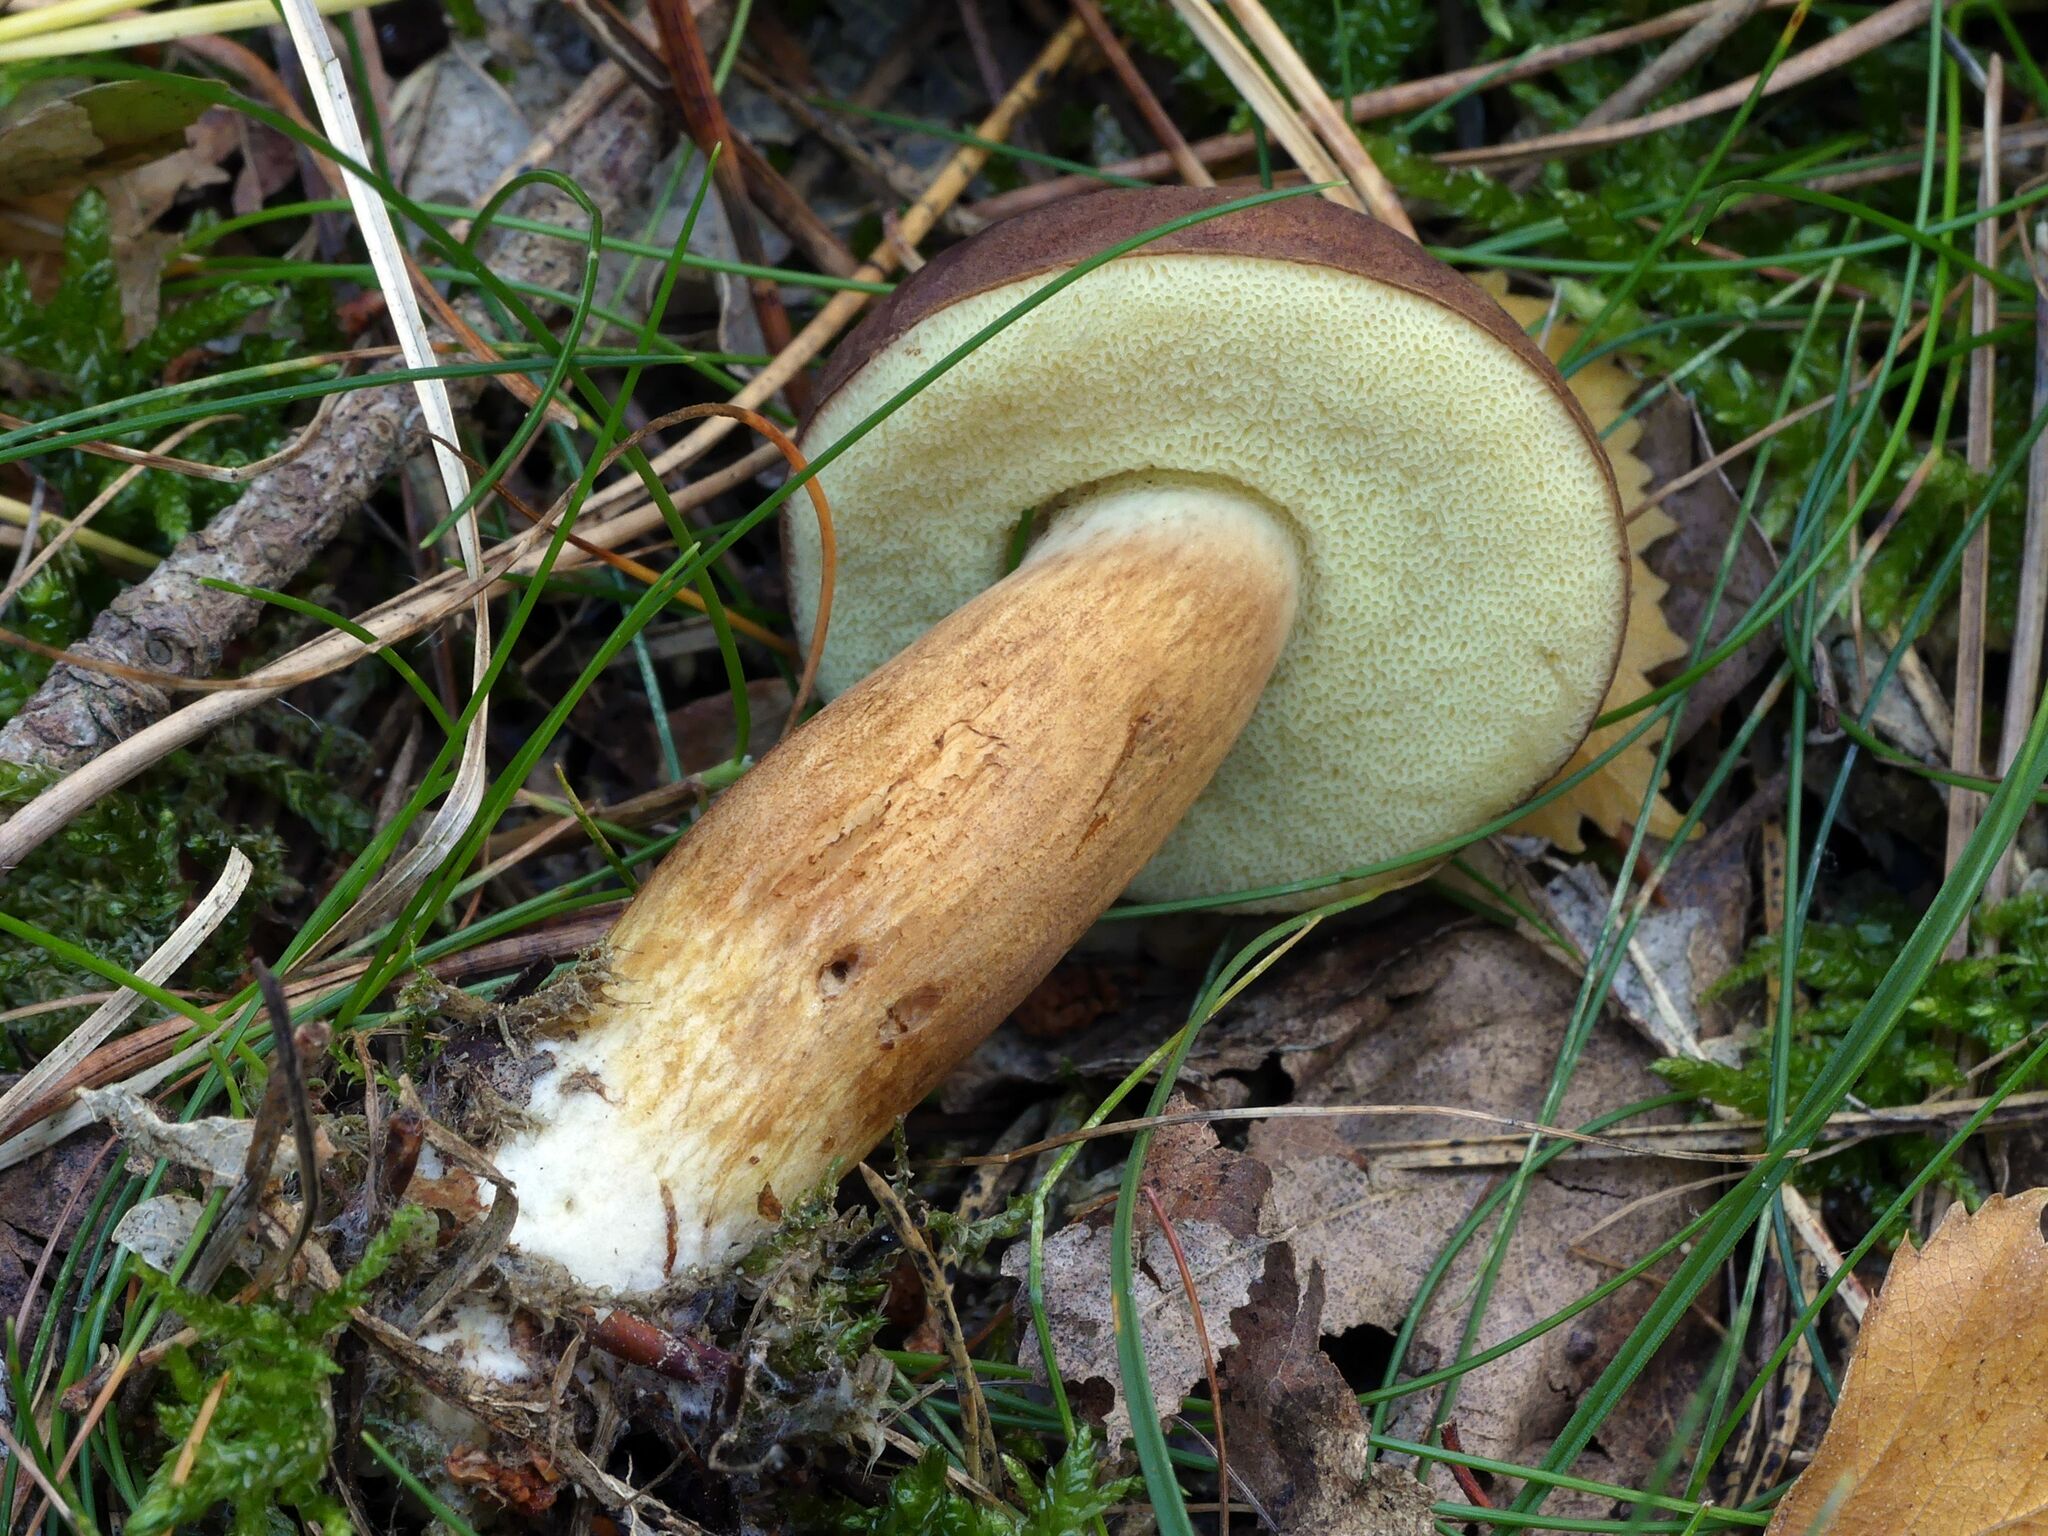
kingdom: Fungi
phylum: Basidiomycota
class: Agaricomycetes
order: Boletales
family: Boletaceae
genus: Imleria
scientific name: Imleria badia
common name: Bay bolete
